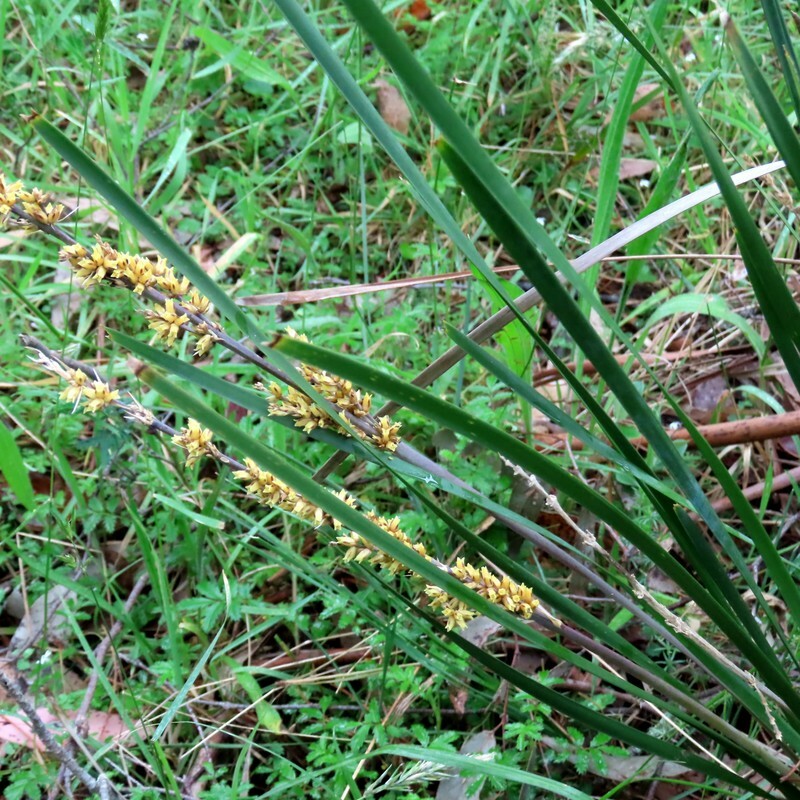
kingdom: Plantae
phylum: Tracheophyta
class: Liliopsida
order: Asparagales
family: Asparagaceae
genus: Lomandra
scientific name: Lomandra longifolia
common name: Longleaf mat-rush
